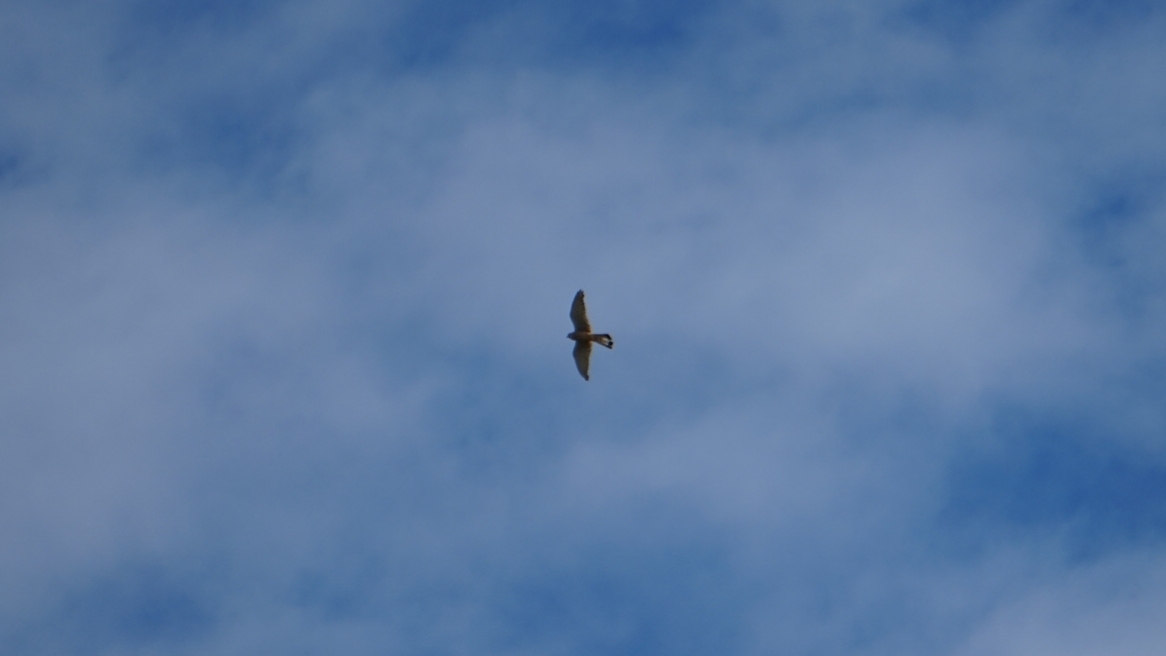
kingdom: Animalia
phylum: Chordata
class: Aves
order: Falconiformes
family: Falconidae
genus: Falco
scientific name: Falco tinnunculus
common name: Common kestrel
